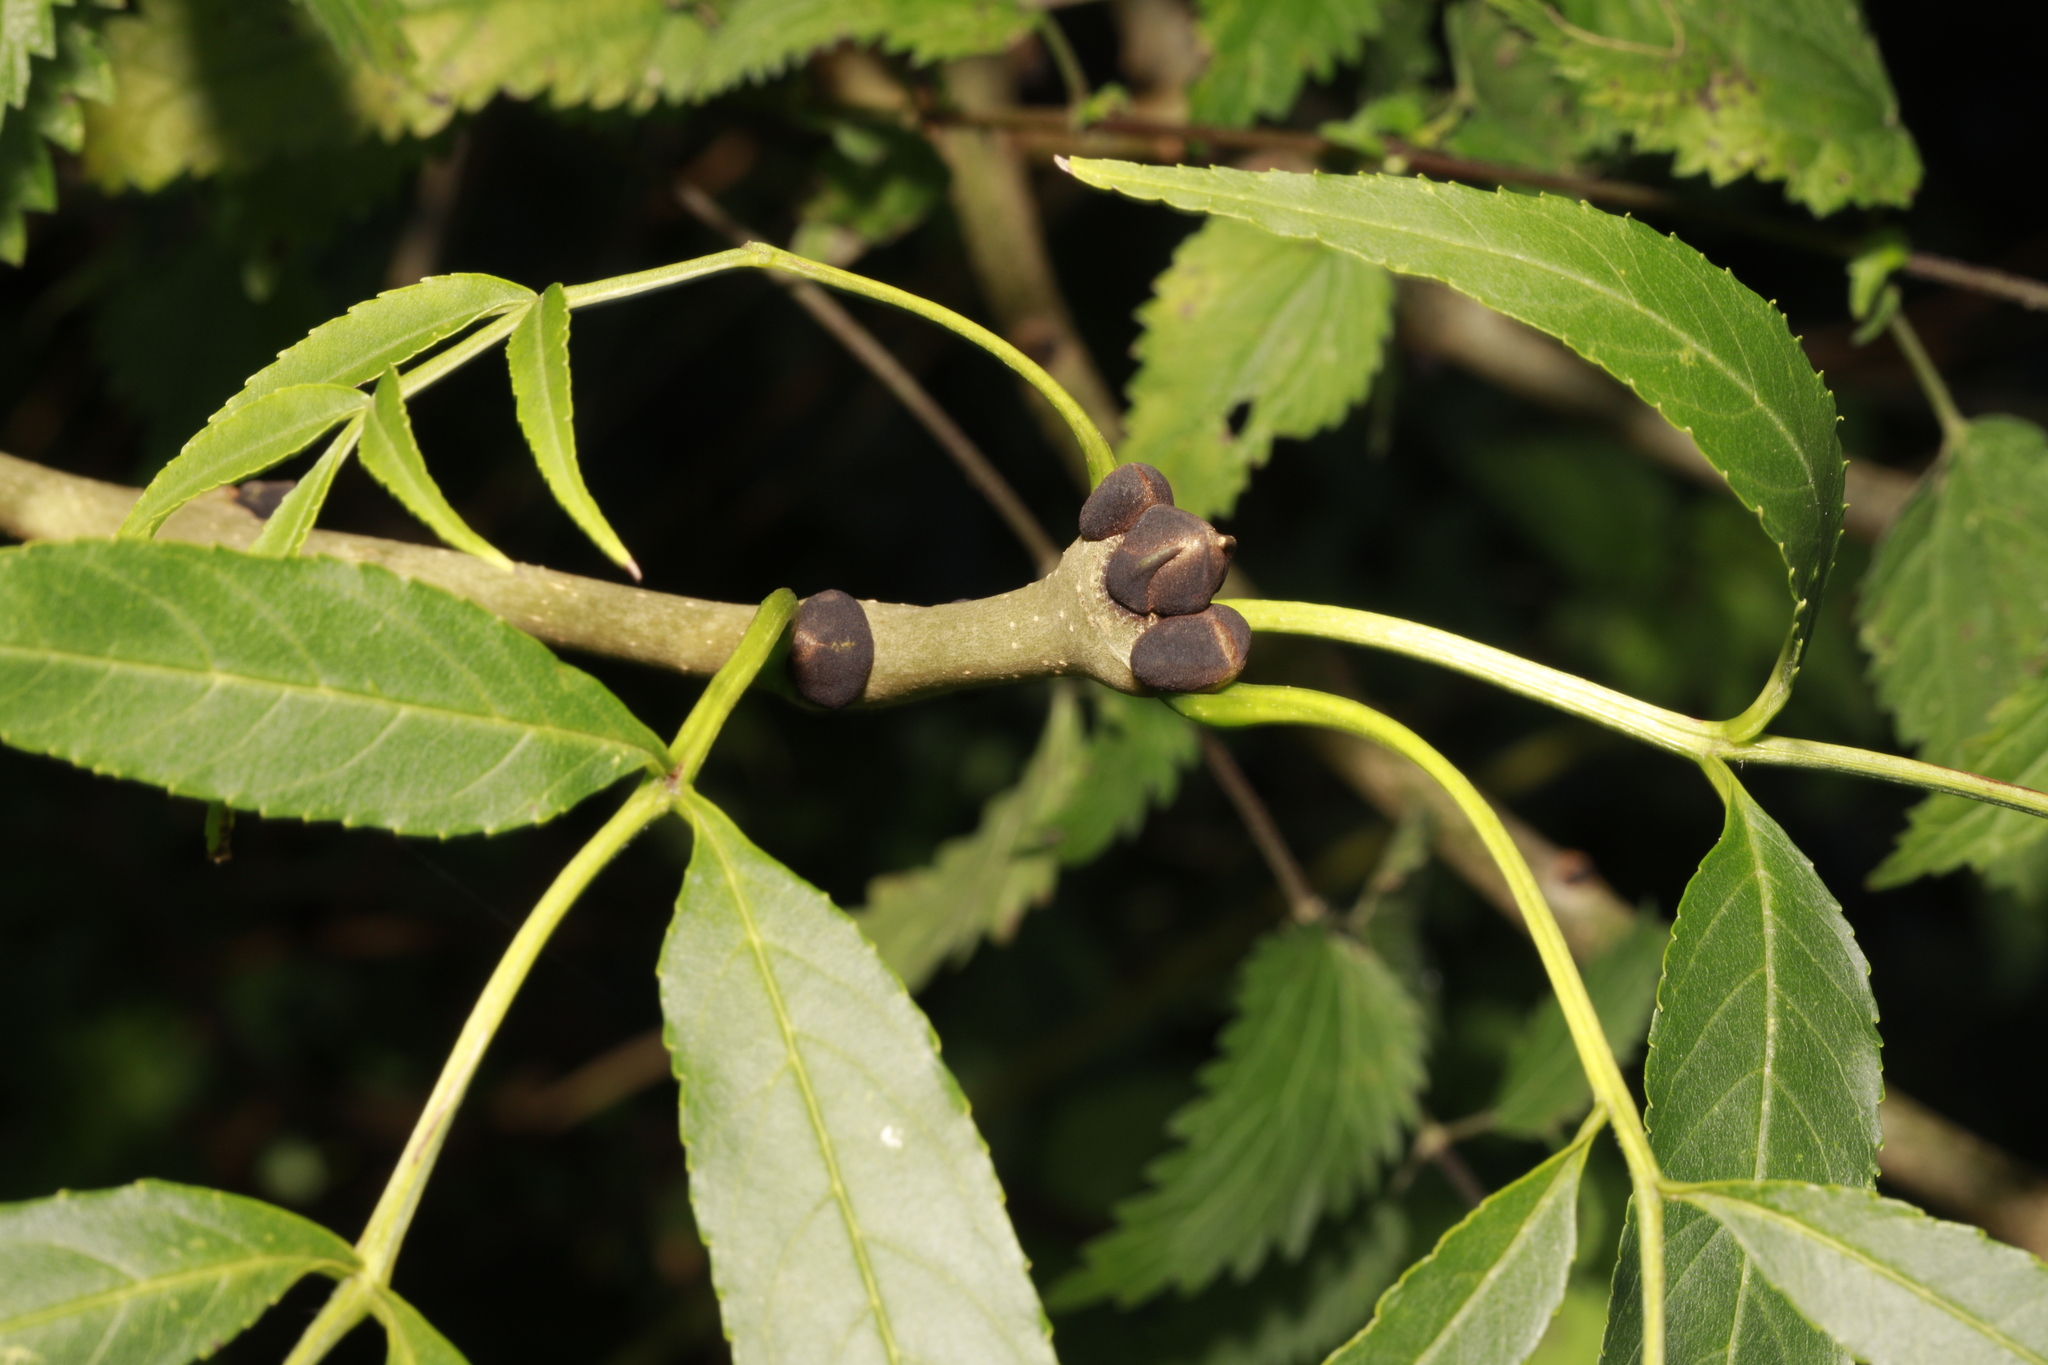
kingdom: Plantae
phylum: Tracheophyta
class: Magnoliopsida
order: Lamiales
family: Oleaceae
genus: Fraxinus
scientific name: Fraxinus excelsior
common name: European ash
